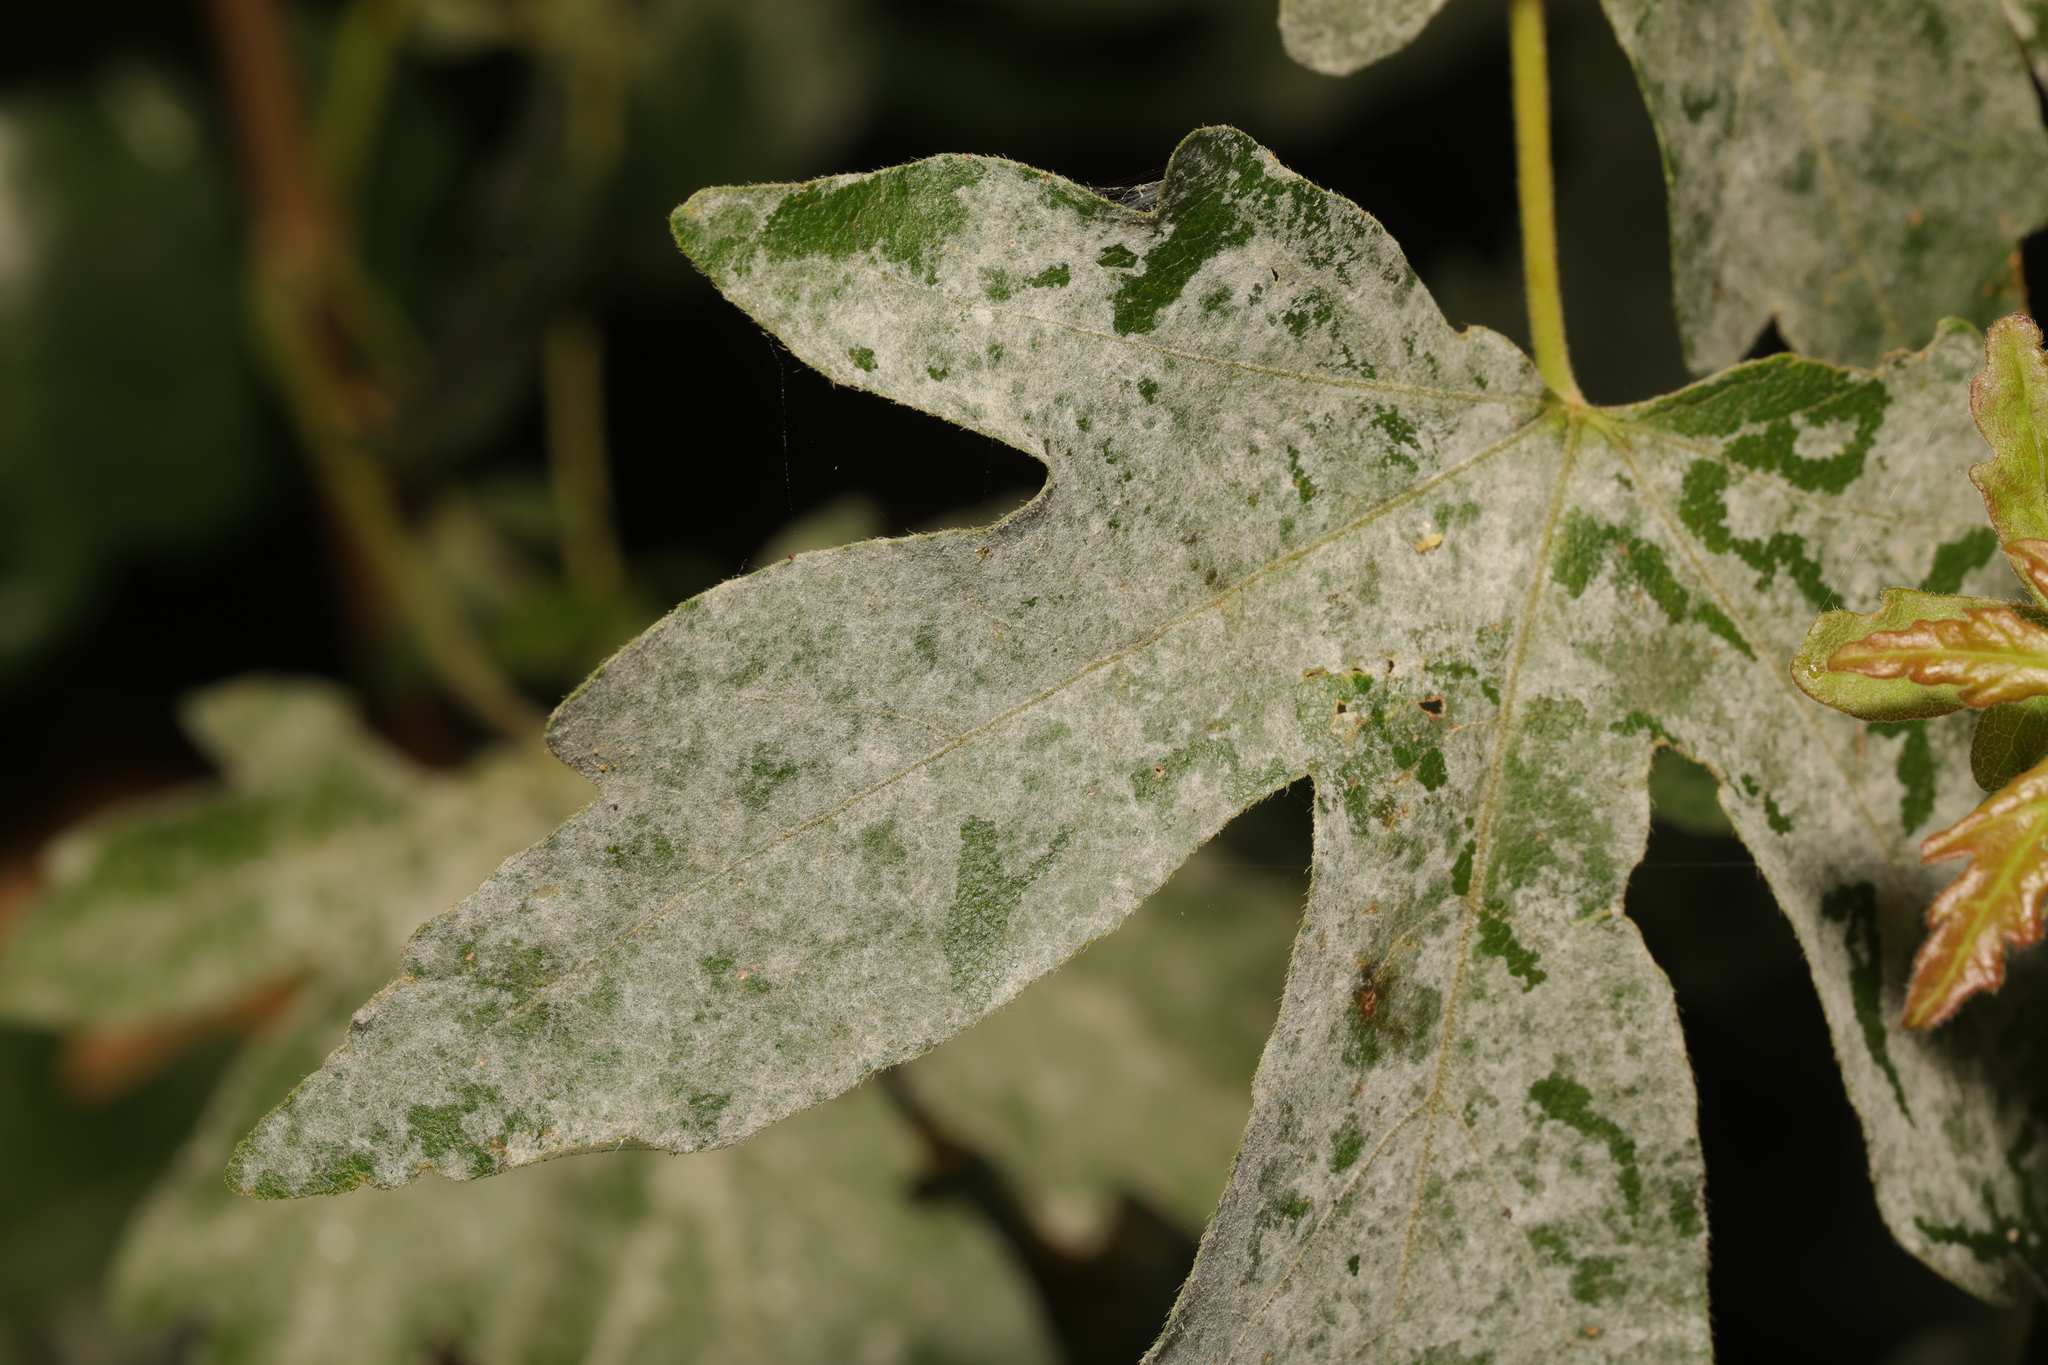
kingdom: Fungi
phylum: Ascomycota
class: Leotiomycetes
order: Helotiales
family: Erysiphaceae
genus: Sawadaea
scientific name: Sawadaea bicornis
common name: Maple mildew
